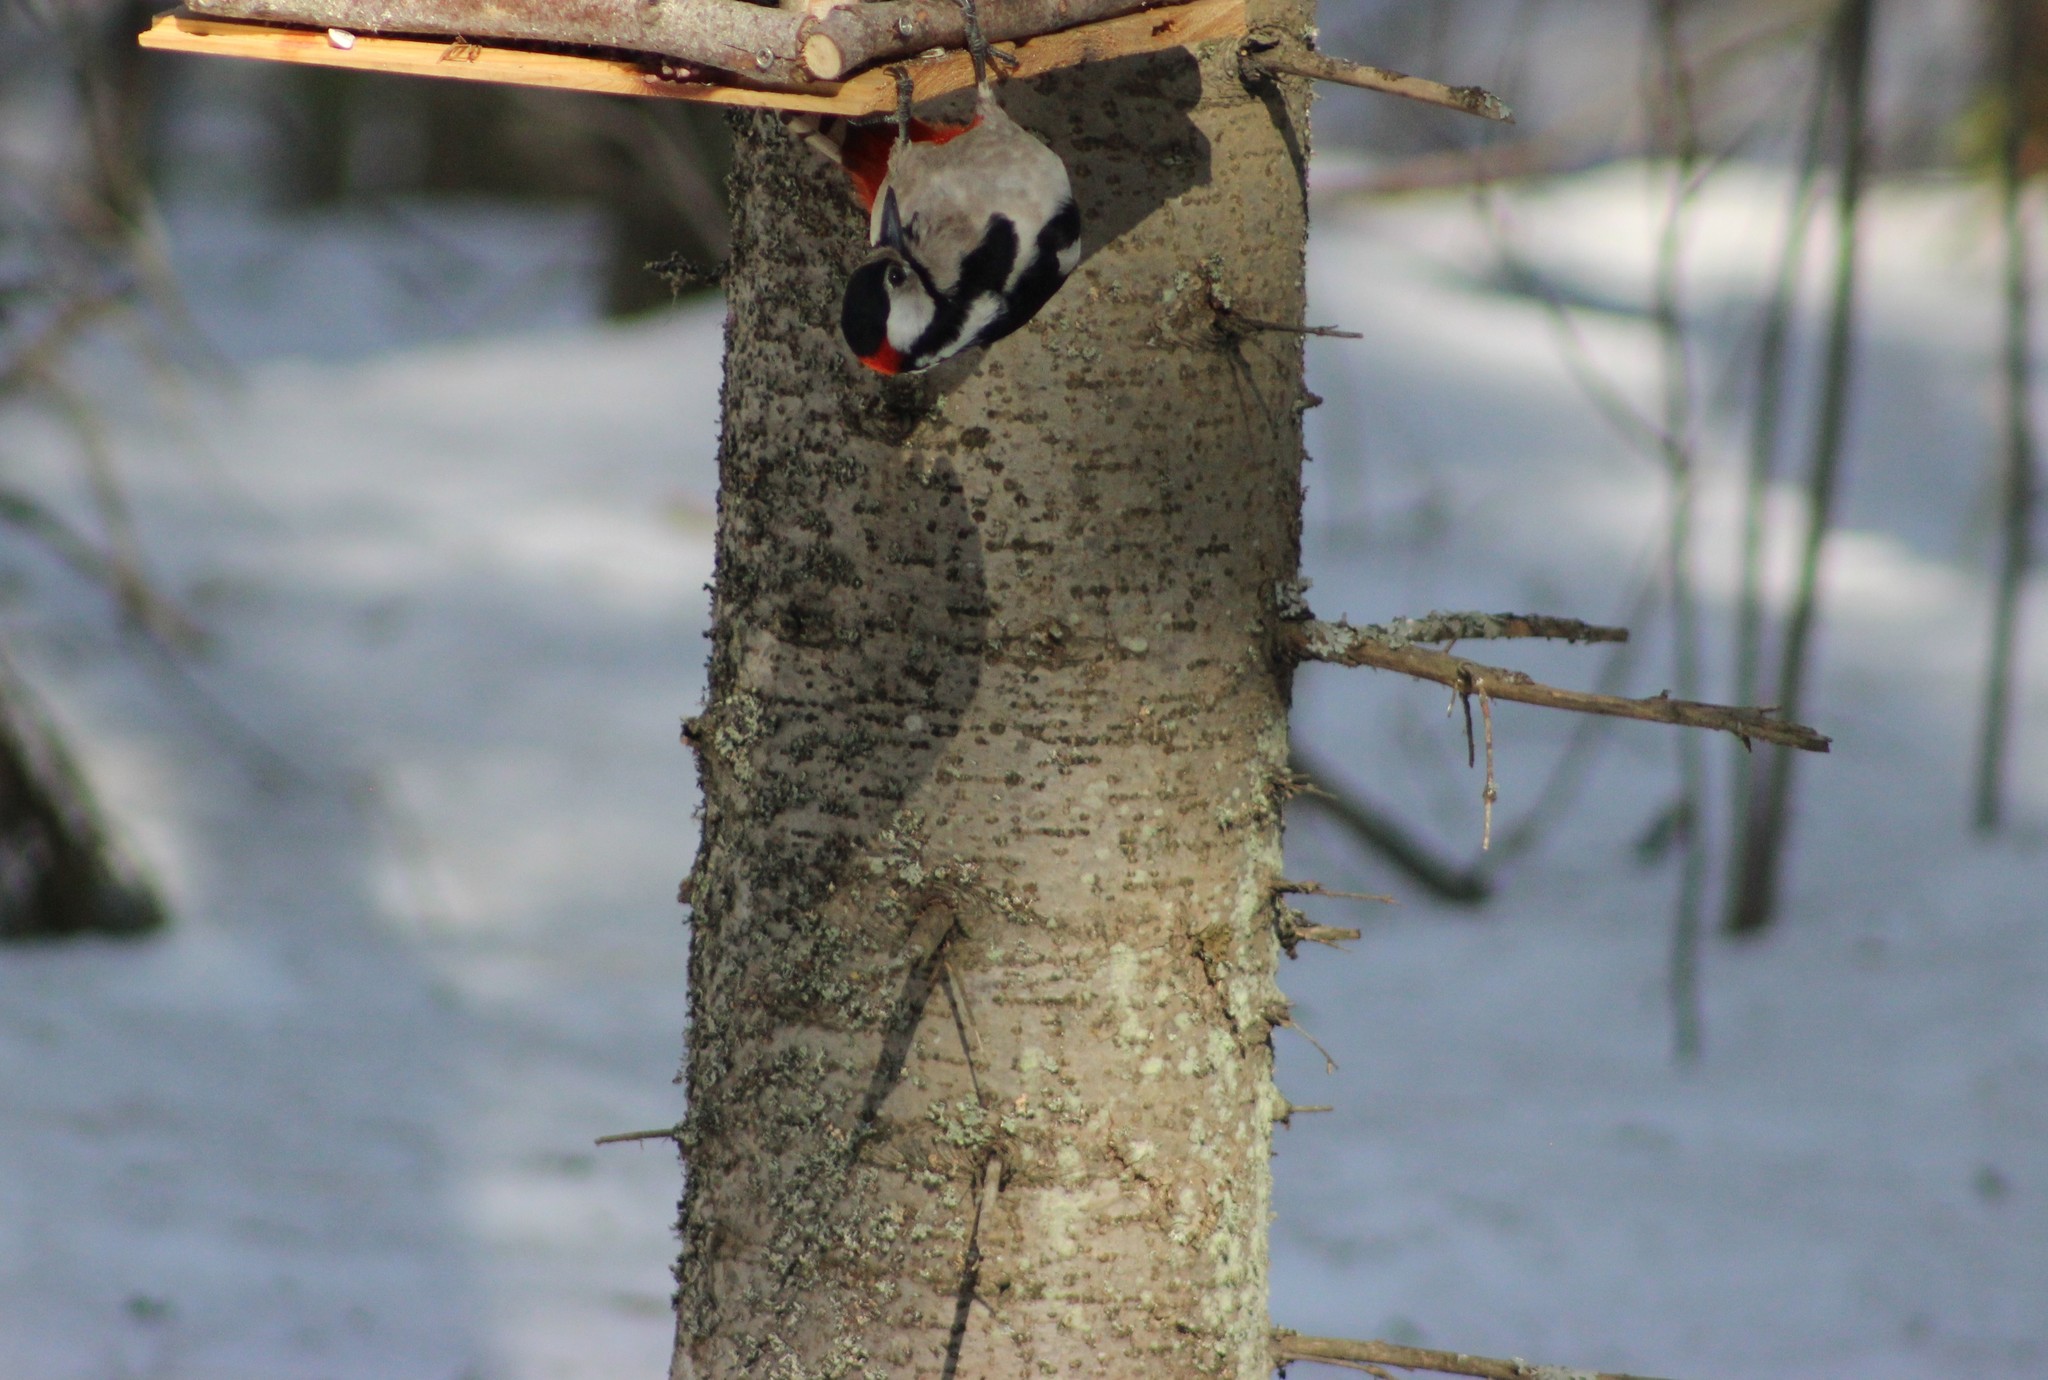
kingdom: Animalia
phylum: Chordata
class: Aves
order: Piciformes
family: Picidae
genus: Dendrocopos
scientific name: Dendrocopos major
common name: Great spotted woodpecker
